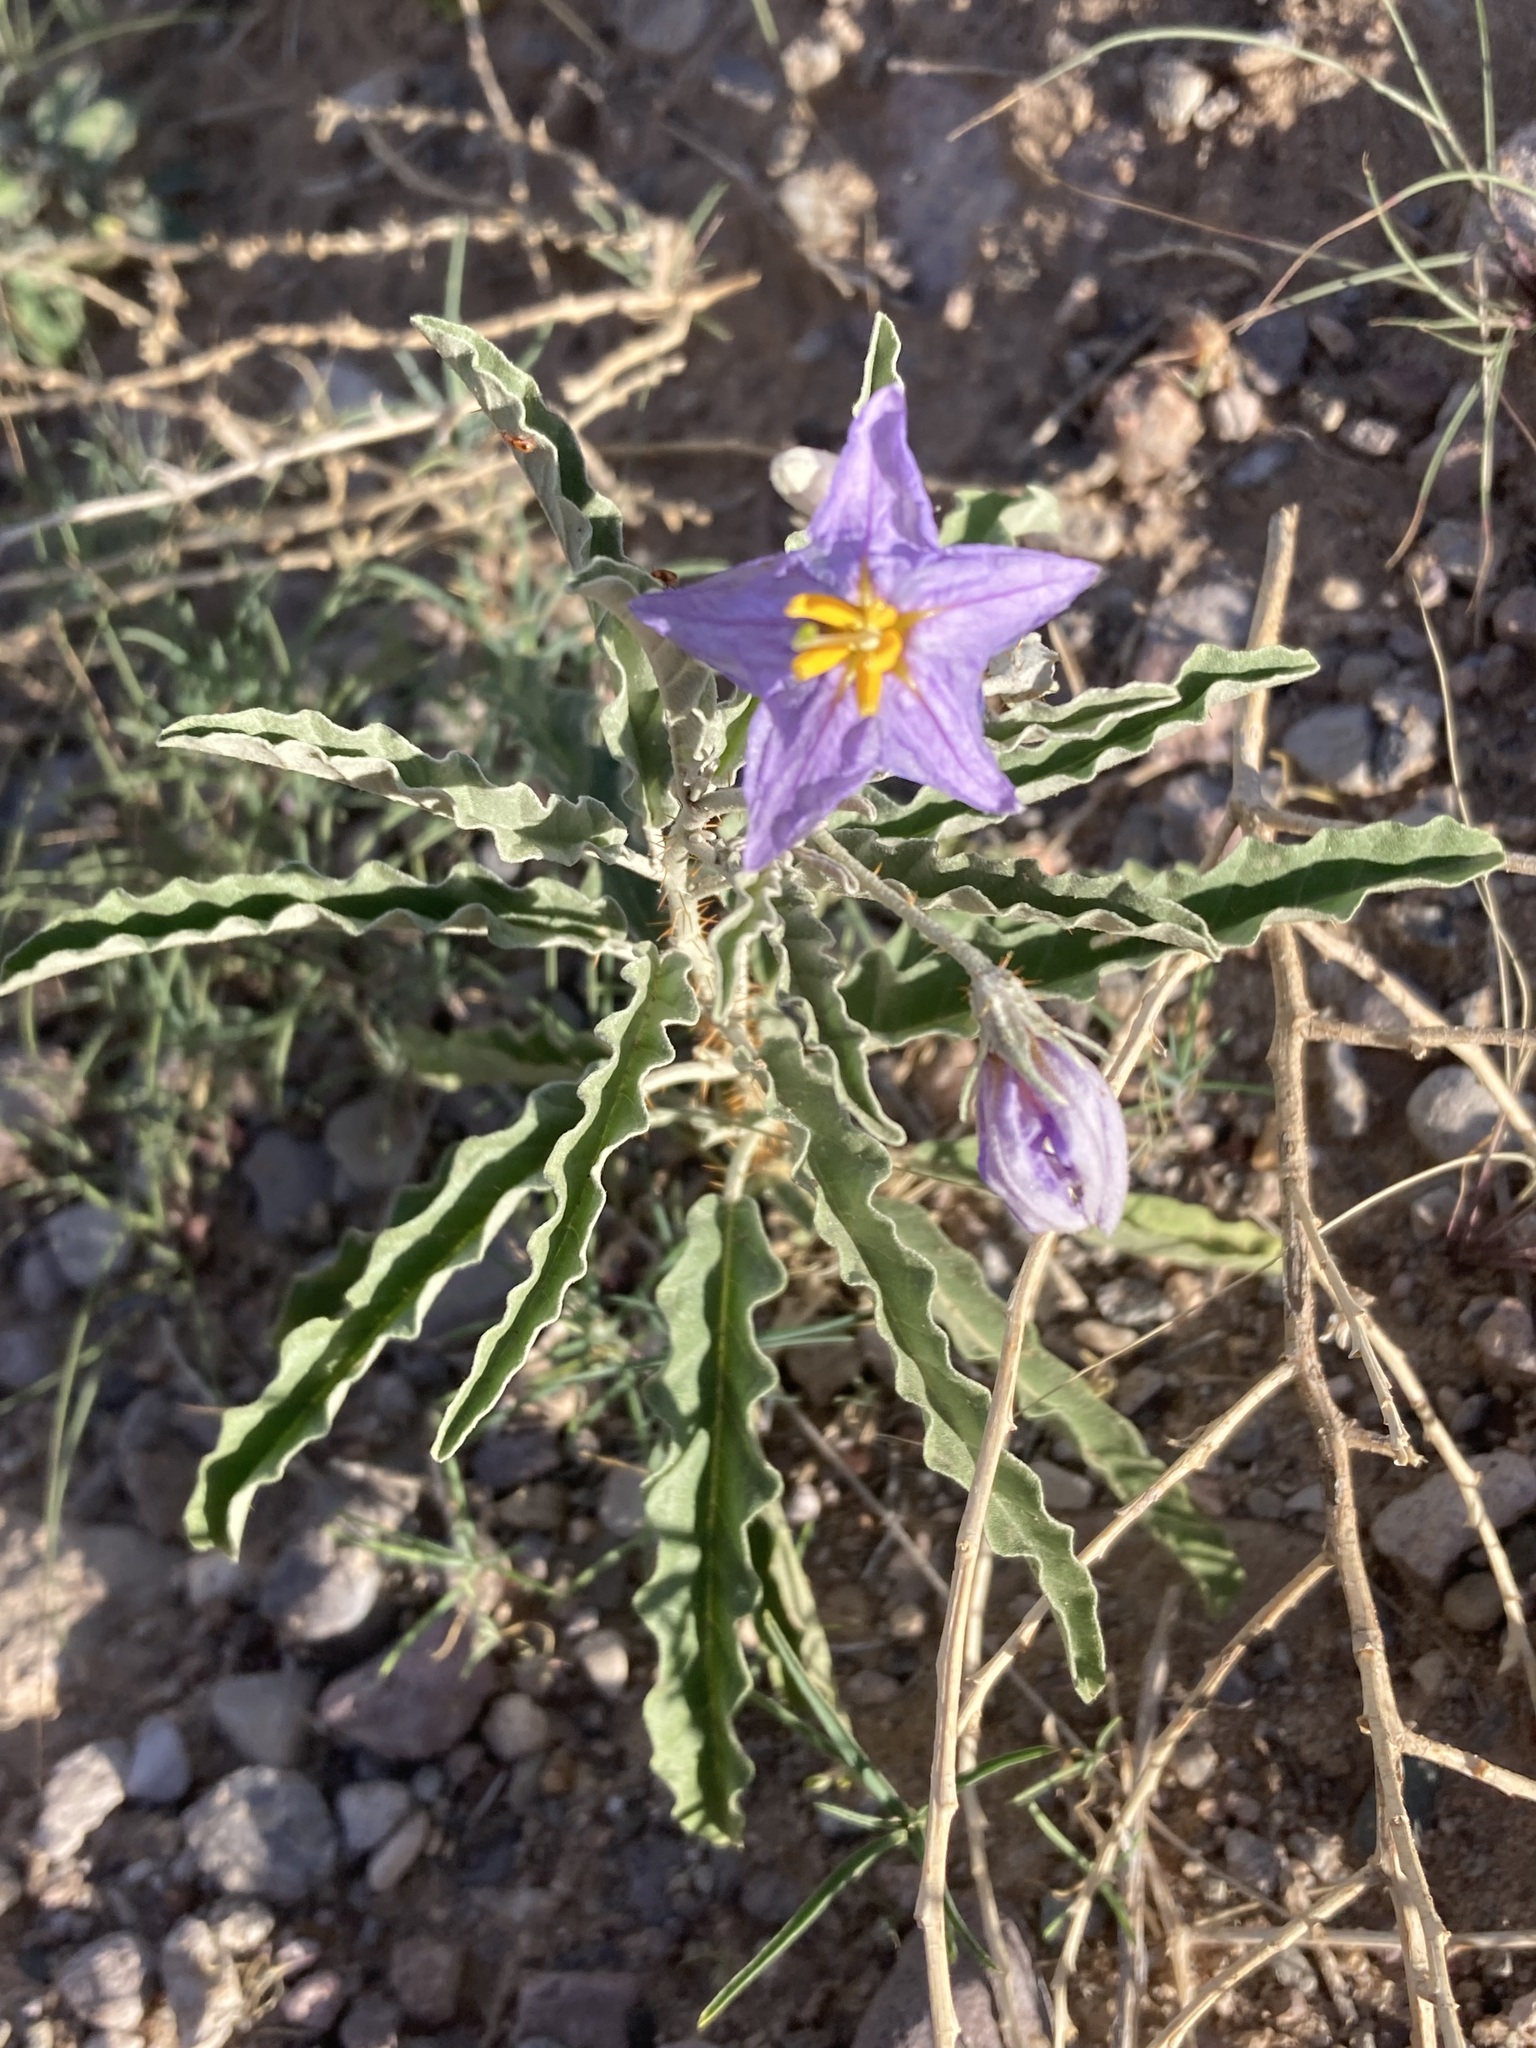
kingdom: Plantae
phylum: Tracheophyta
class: Magnoliopsida
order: Solanales
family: Solanaceae
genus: Solanum
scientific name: Solanum elaeagnifolium
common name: Silverleaf nightshade
